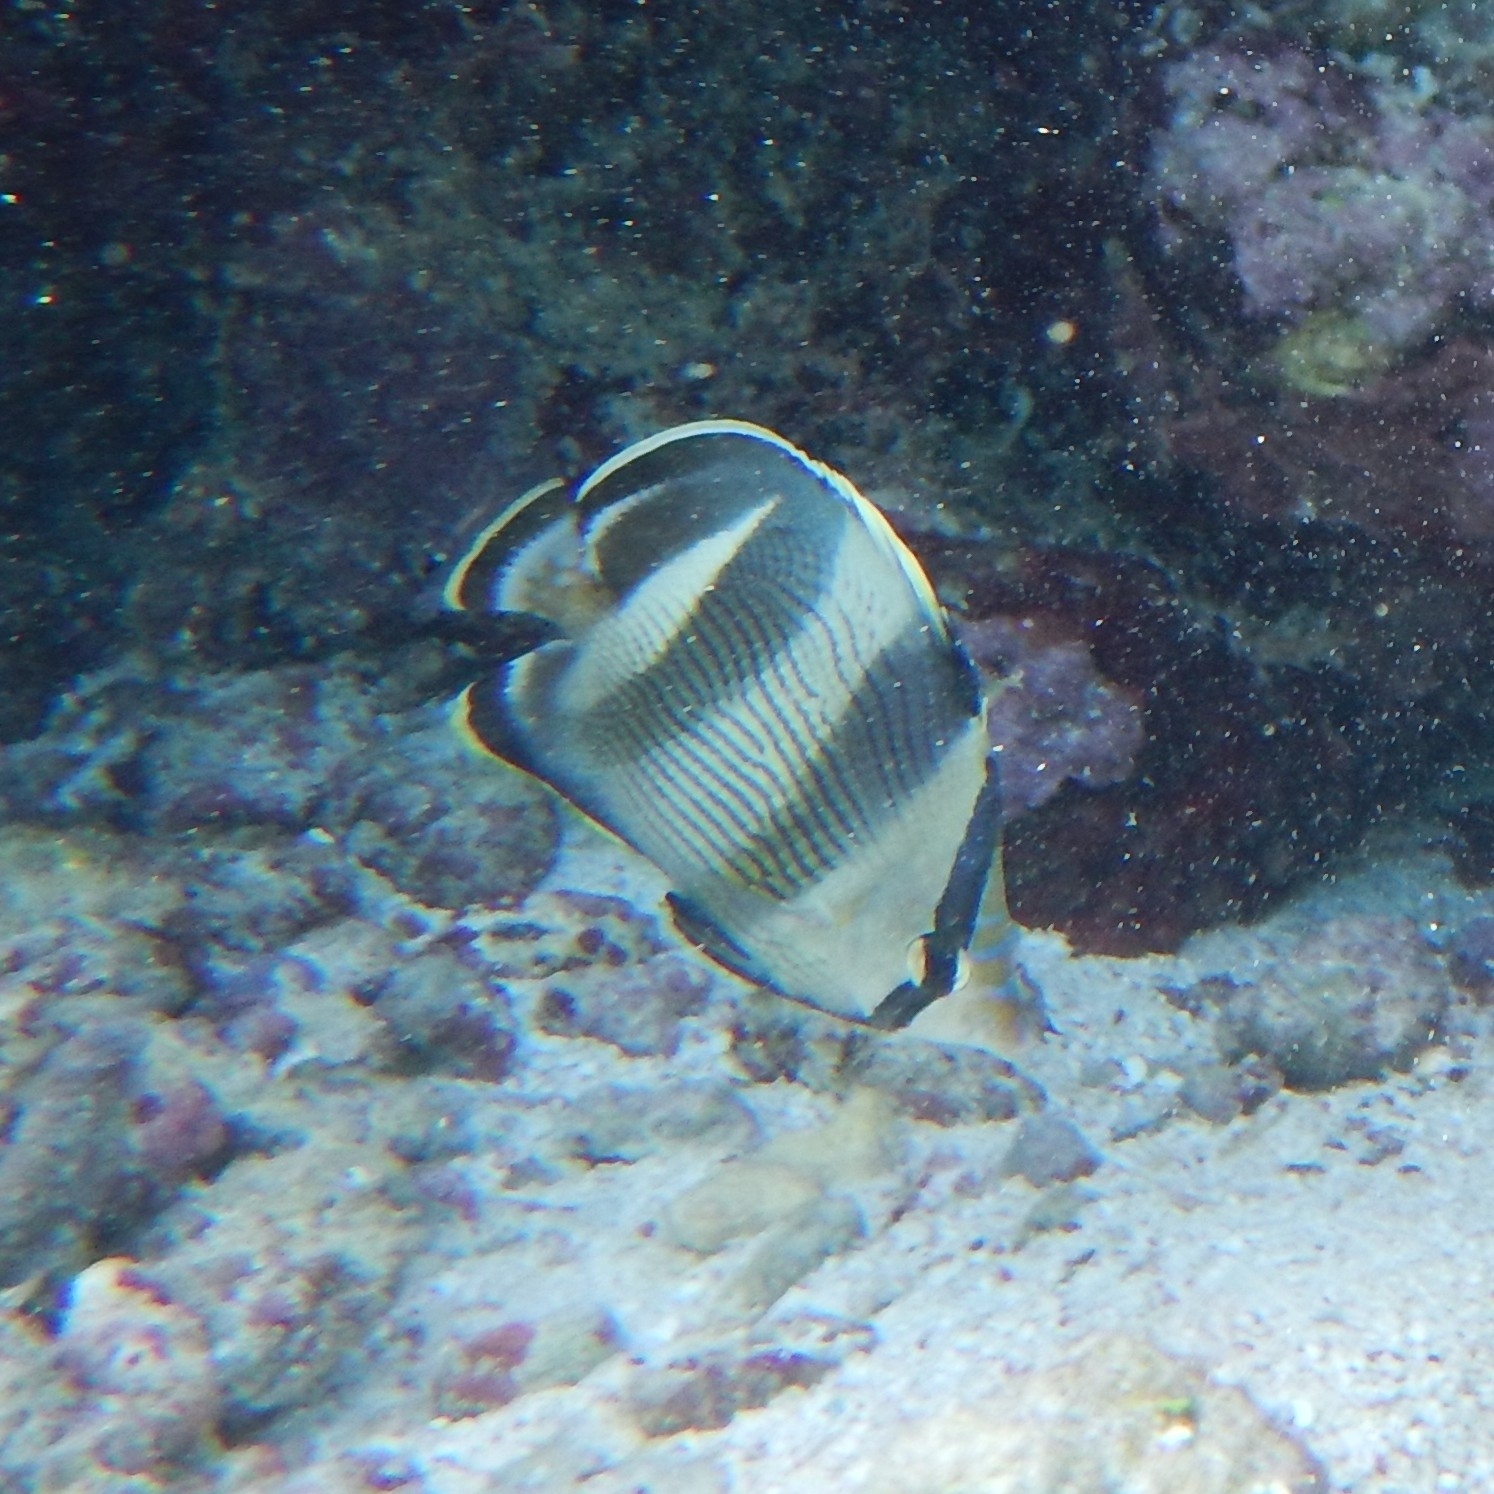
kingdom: Animalia
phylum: Chordata
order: Perciformes
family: Chaetodontidae
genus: Chaetodon
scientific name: Chaetodon striatus
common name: Banded butterflyfish
